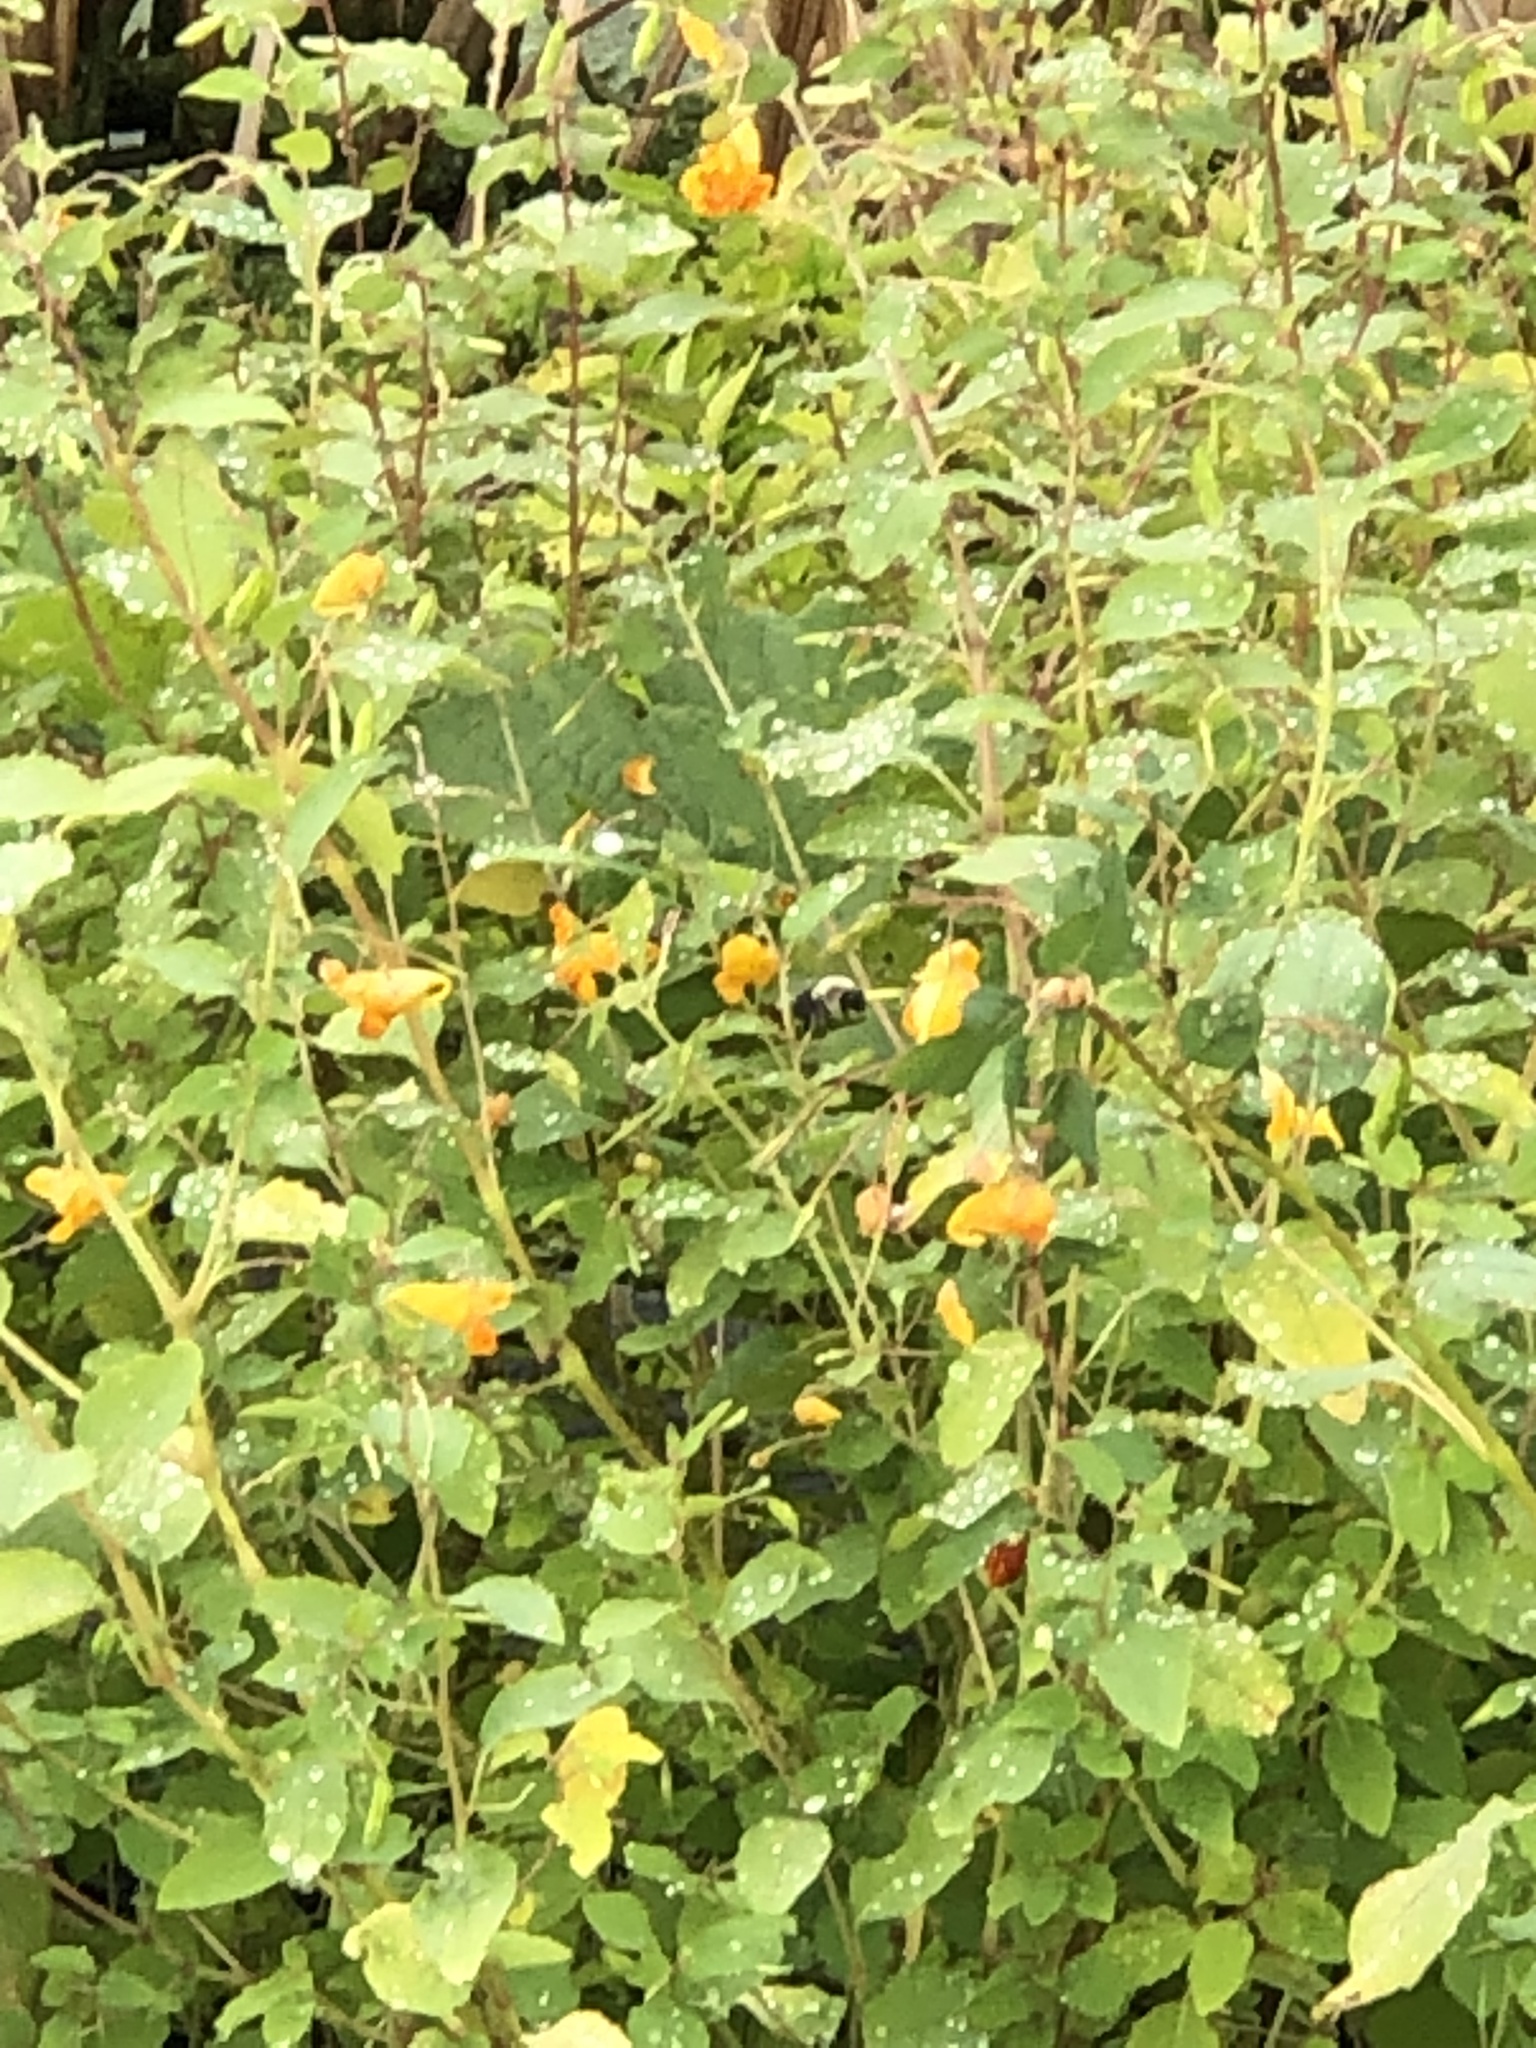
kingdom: Plantae
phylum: Tracheophyta
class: Magnoliopsida
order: Ericales
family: Balsaminaceae
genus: Impatiens
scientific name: Impatiens capensis
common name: Orange balsam
